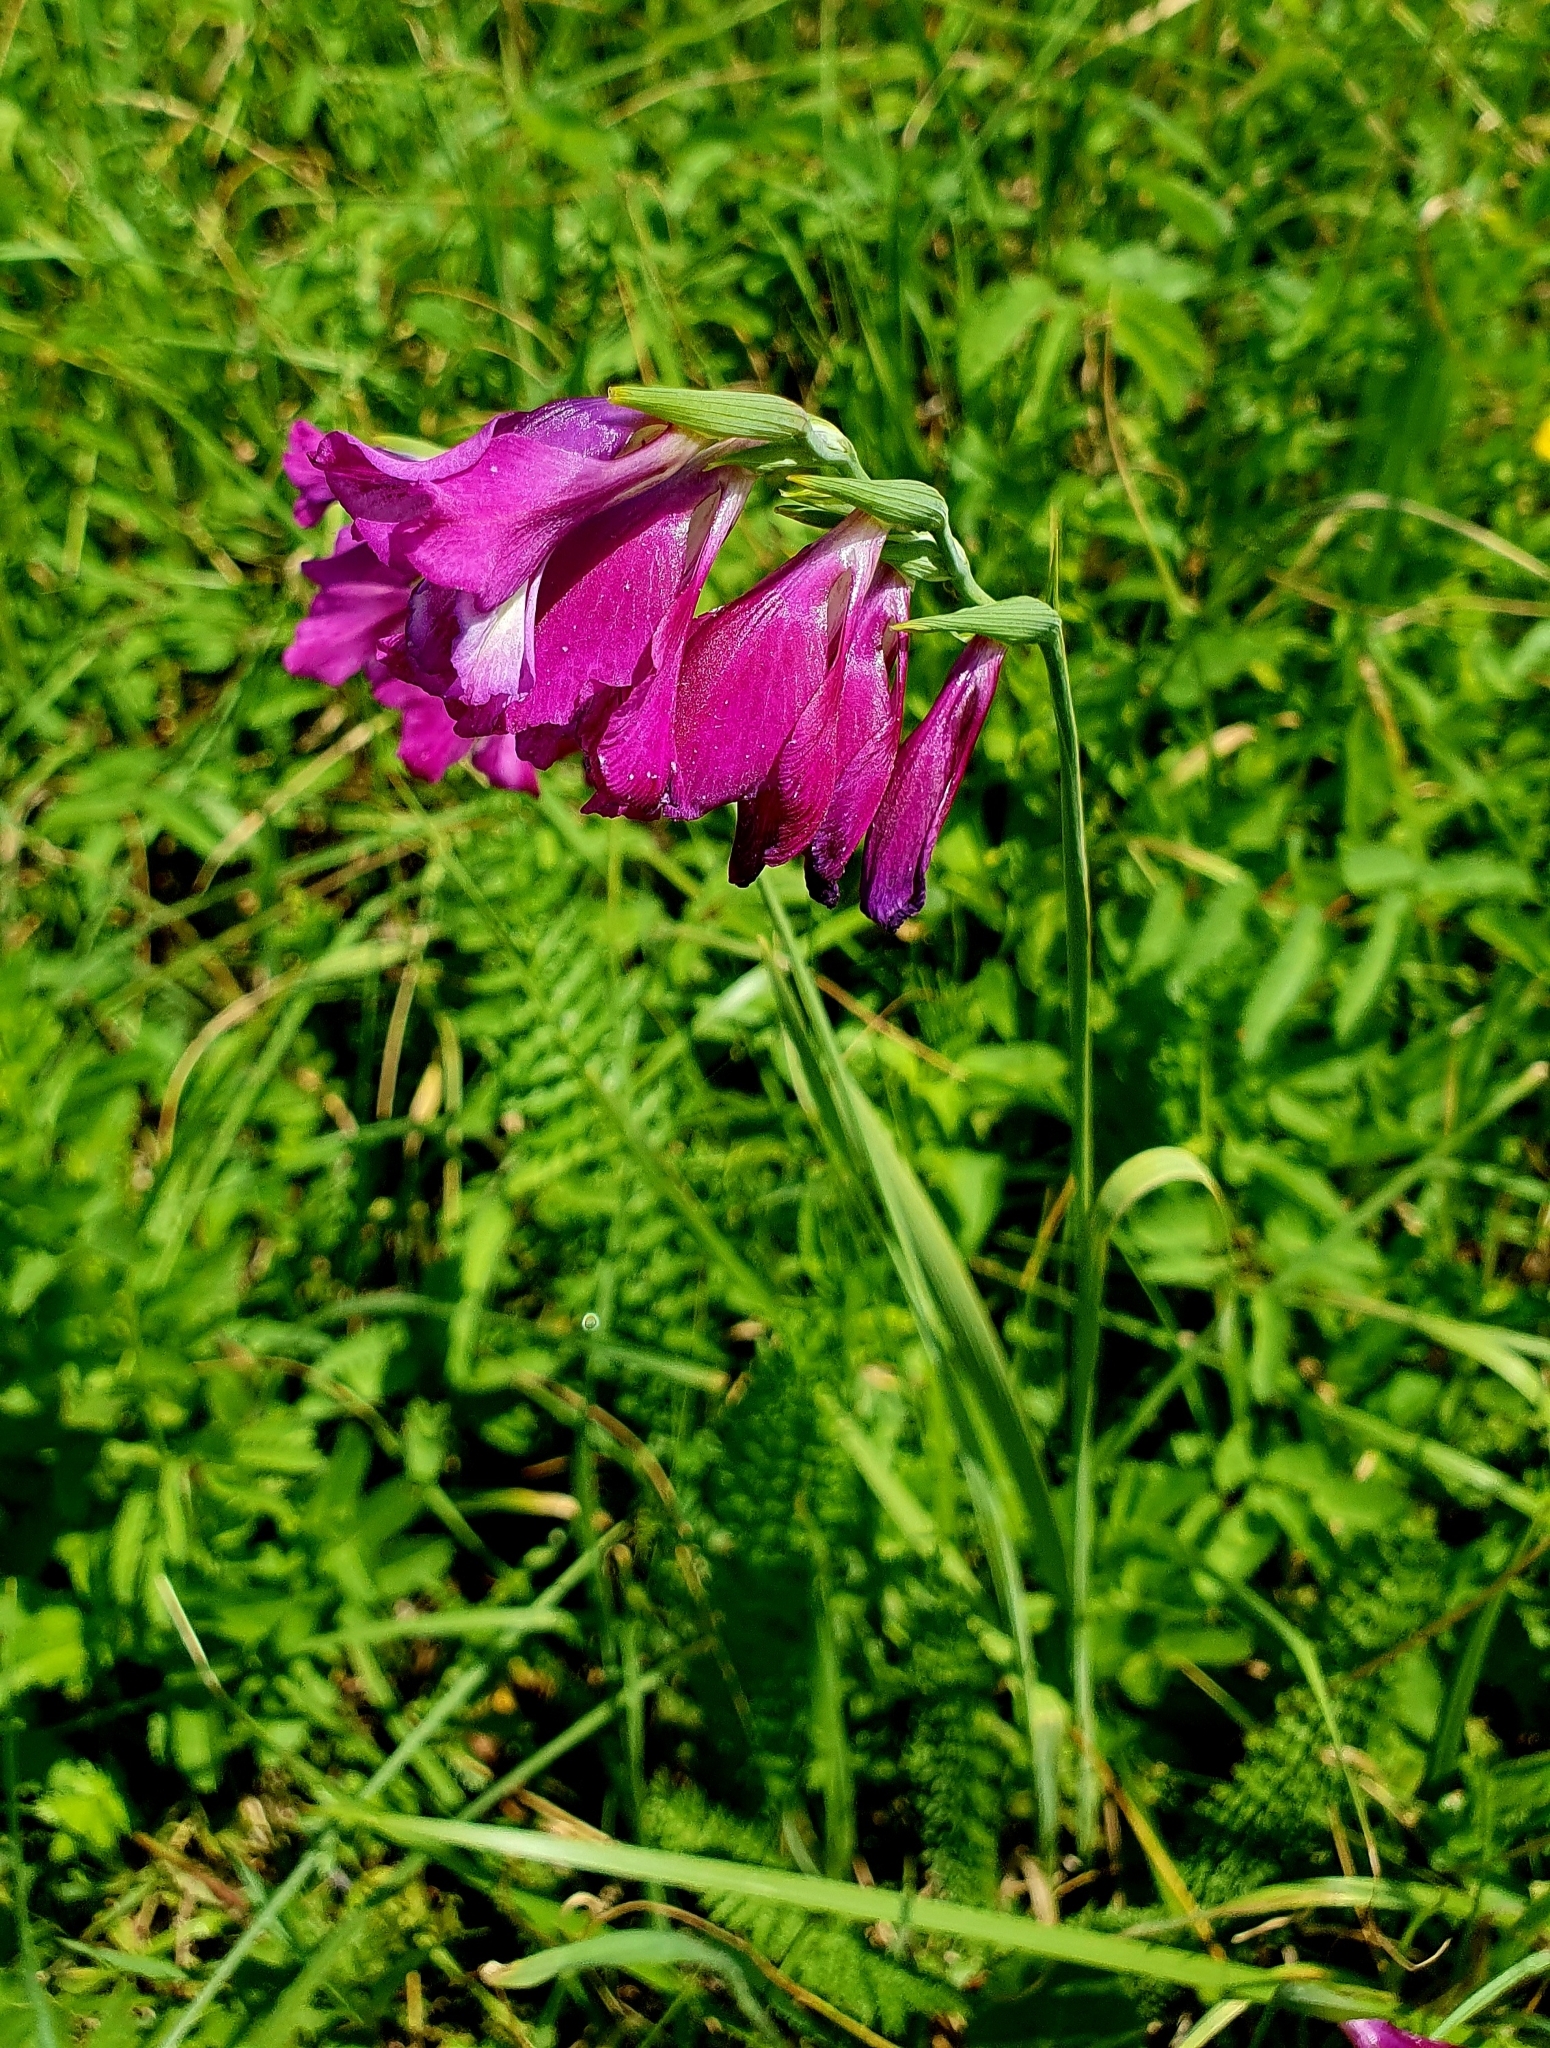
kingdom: Plantae
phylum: Tracheophyta
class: Liliopsida
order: Asparagales
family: Iridaceae
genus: Gladiolus
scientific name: Gladiolus tenuis
